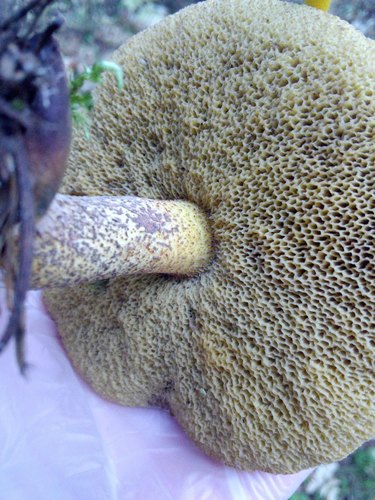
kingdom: Fungi
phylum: Basidiomycota
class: Agaricomycetes
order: Boletales
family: Suillaceae
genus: Suillus
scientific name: Suillus punctipes
